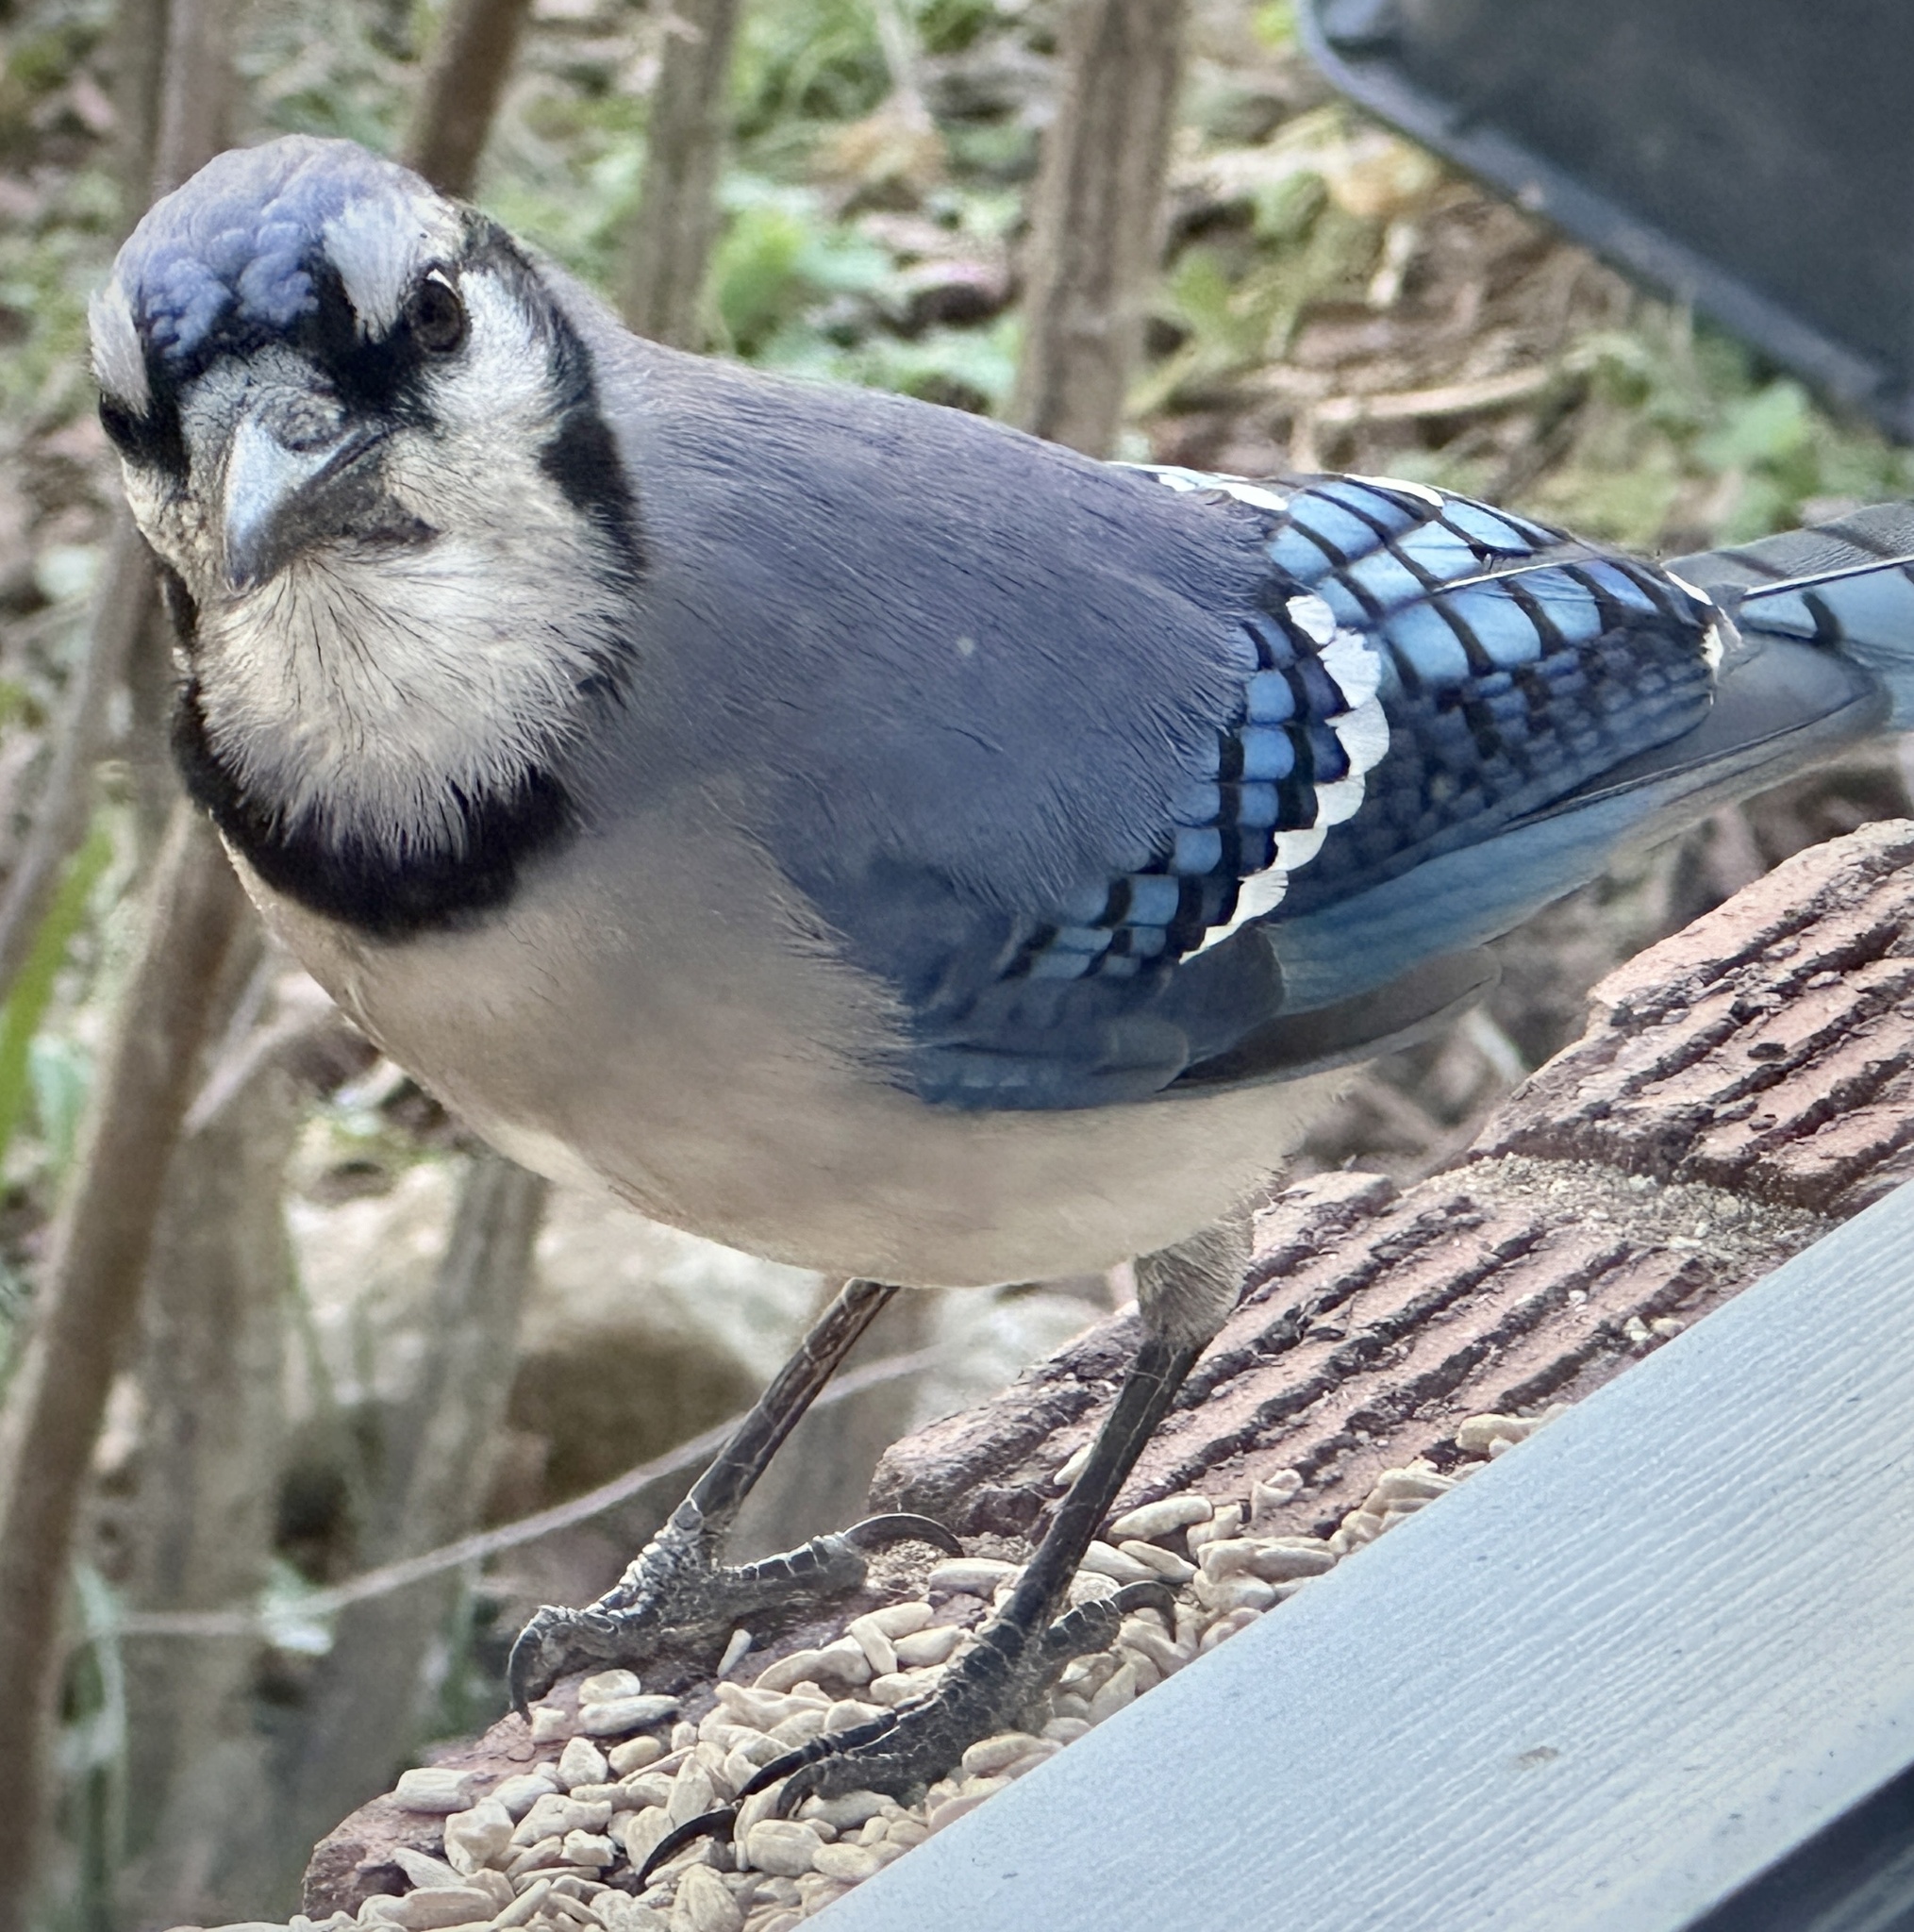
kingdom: Animalia
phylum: Chordata
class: Aves
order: Passeriformes
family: Corvidae
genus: Cyanocitta
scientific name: Cyanocitta cristata
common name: Blue jay
